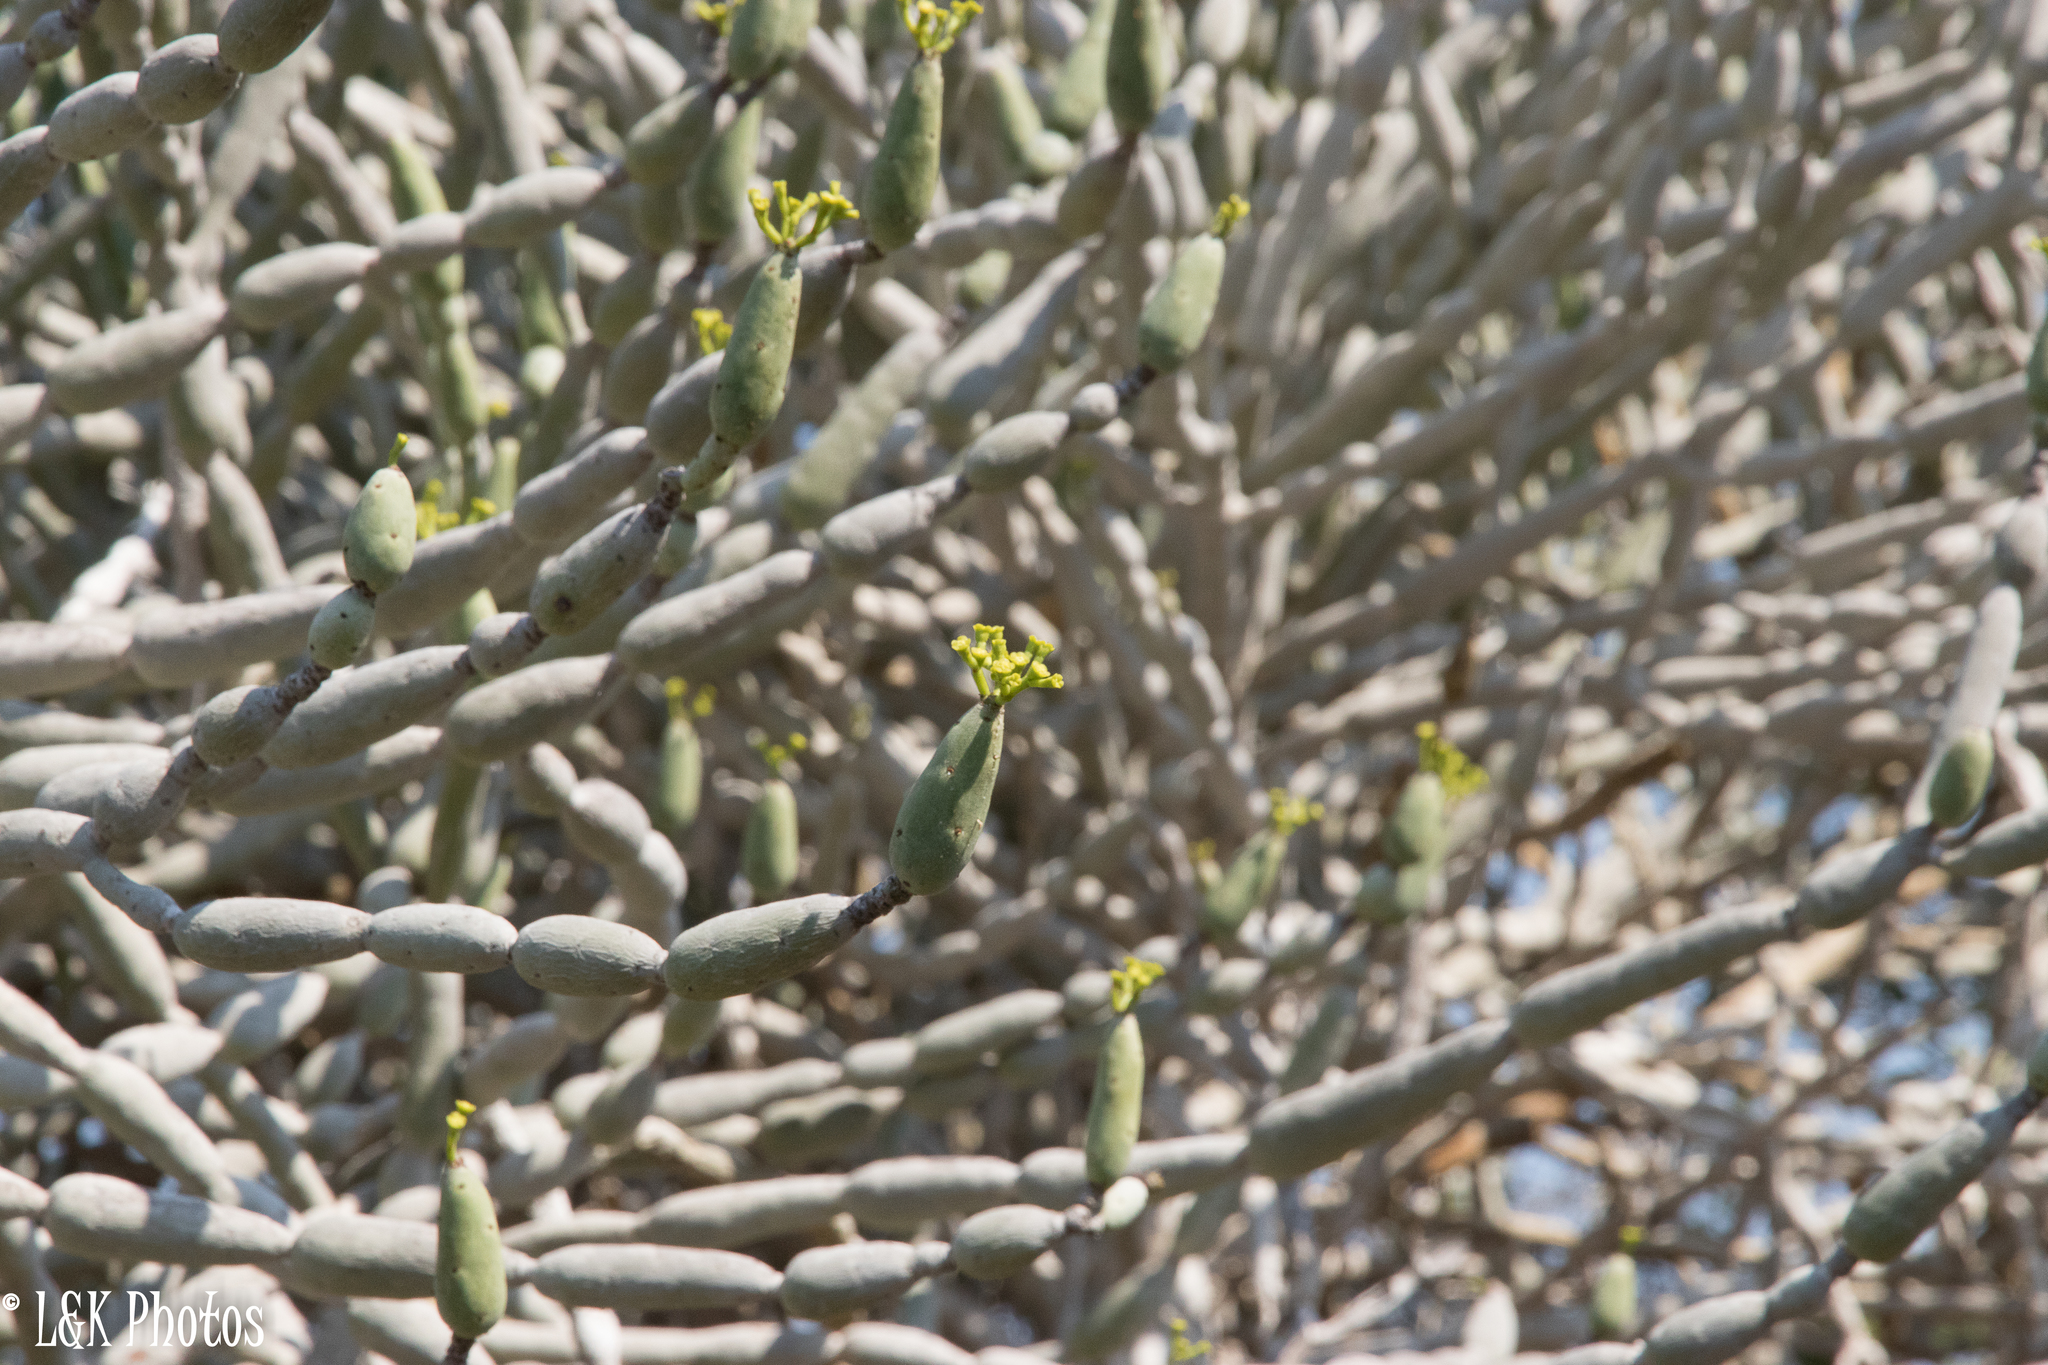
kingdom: Plantae
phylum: Tracheophyta
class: Magnoliopsida
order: Malpighiales
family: Euphorbiaceae
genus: Euphorbia
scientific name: Euphorbia alluaudii
